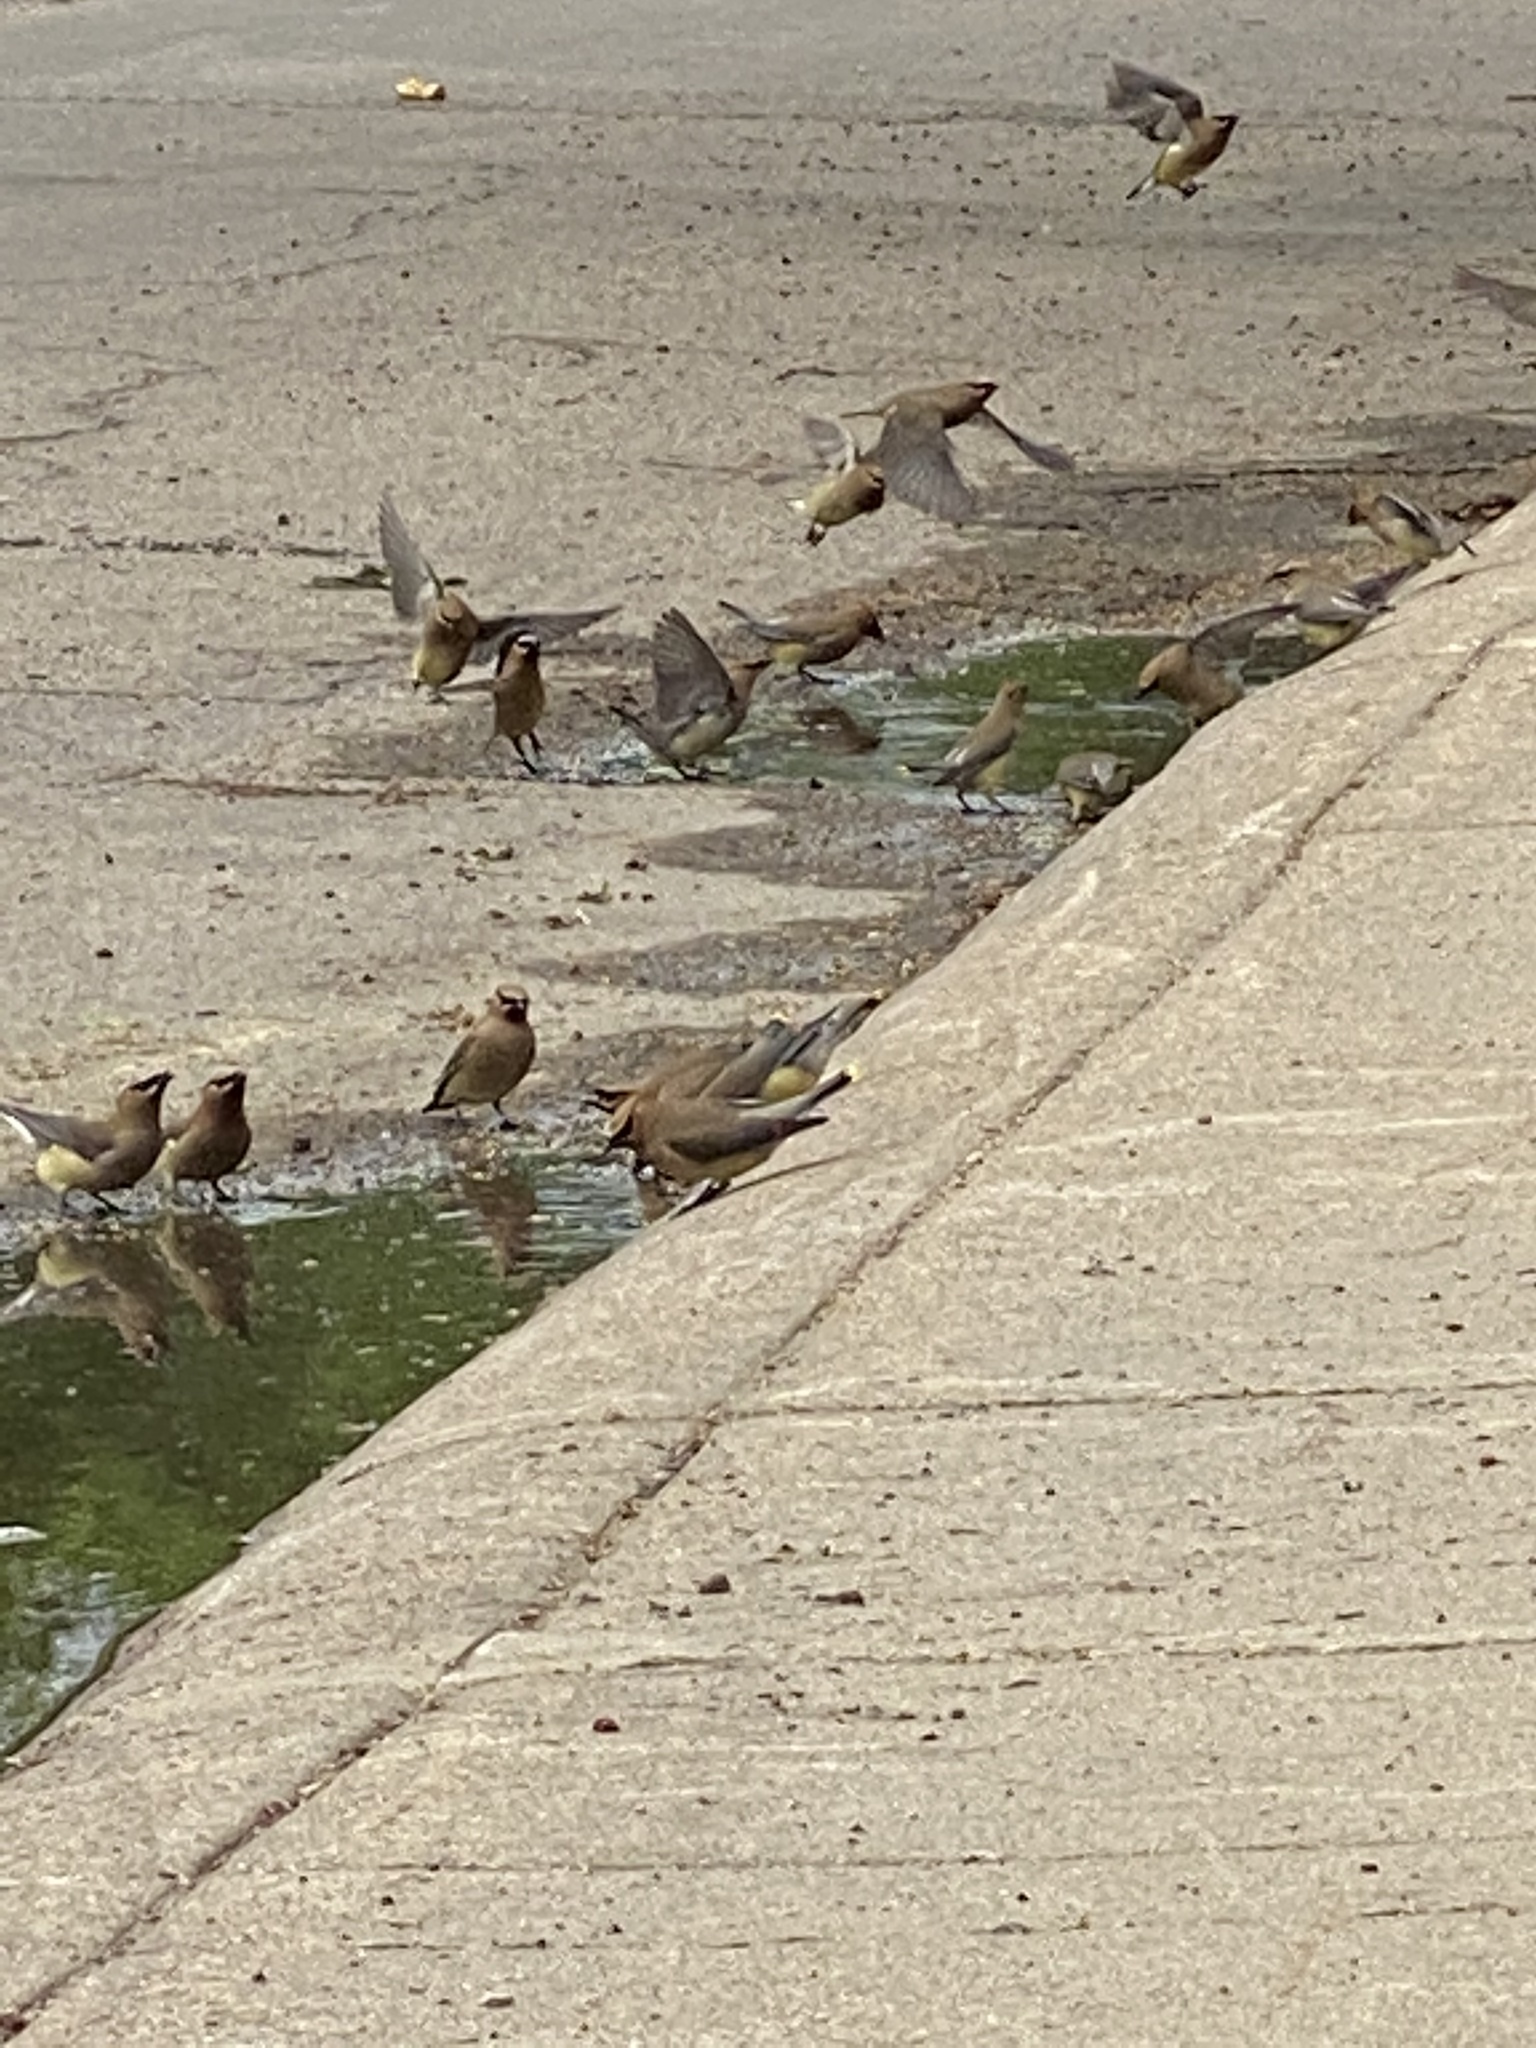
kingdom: Animalia
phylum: Chordata
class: Aves
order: Passeriformes
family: Bombycillidae
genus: Bombycilla
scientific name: Bombycilla cedrorum
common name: Cedar waxwing
